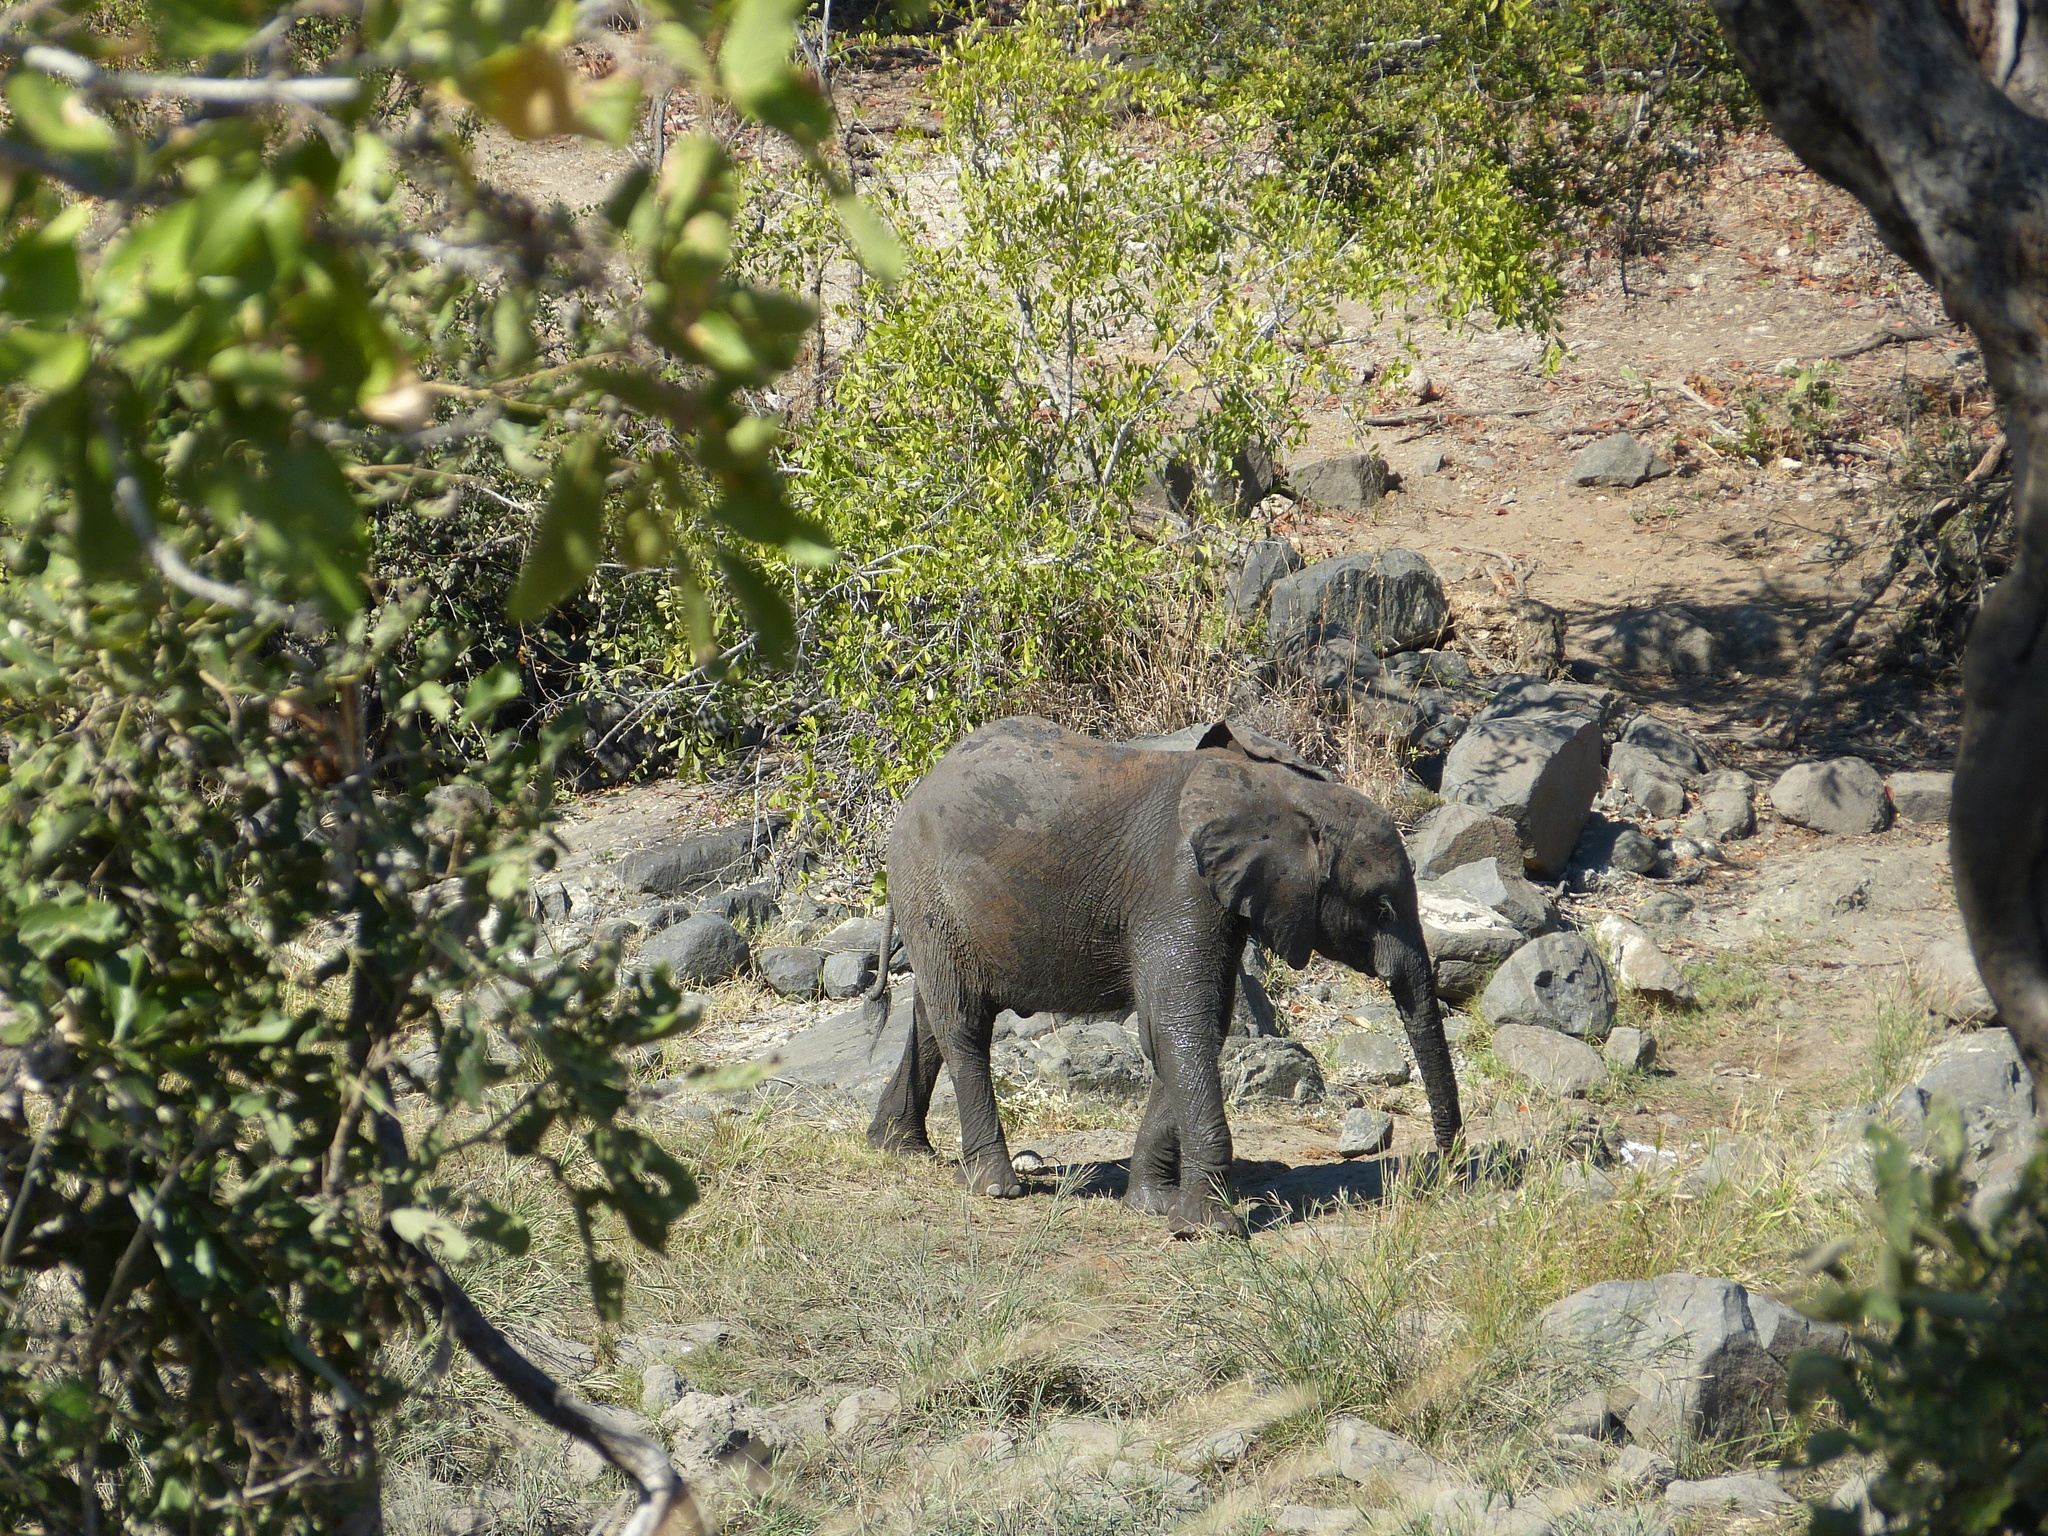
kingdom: Animalia
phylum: Chordata
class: Mammalia
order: Proboscidea
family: Elephantidae
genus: Loxodonta
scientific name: Loxodonta africana
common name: African elephant
